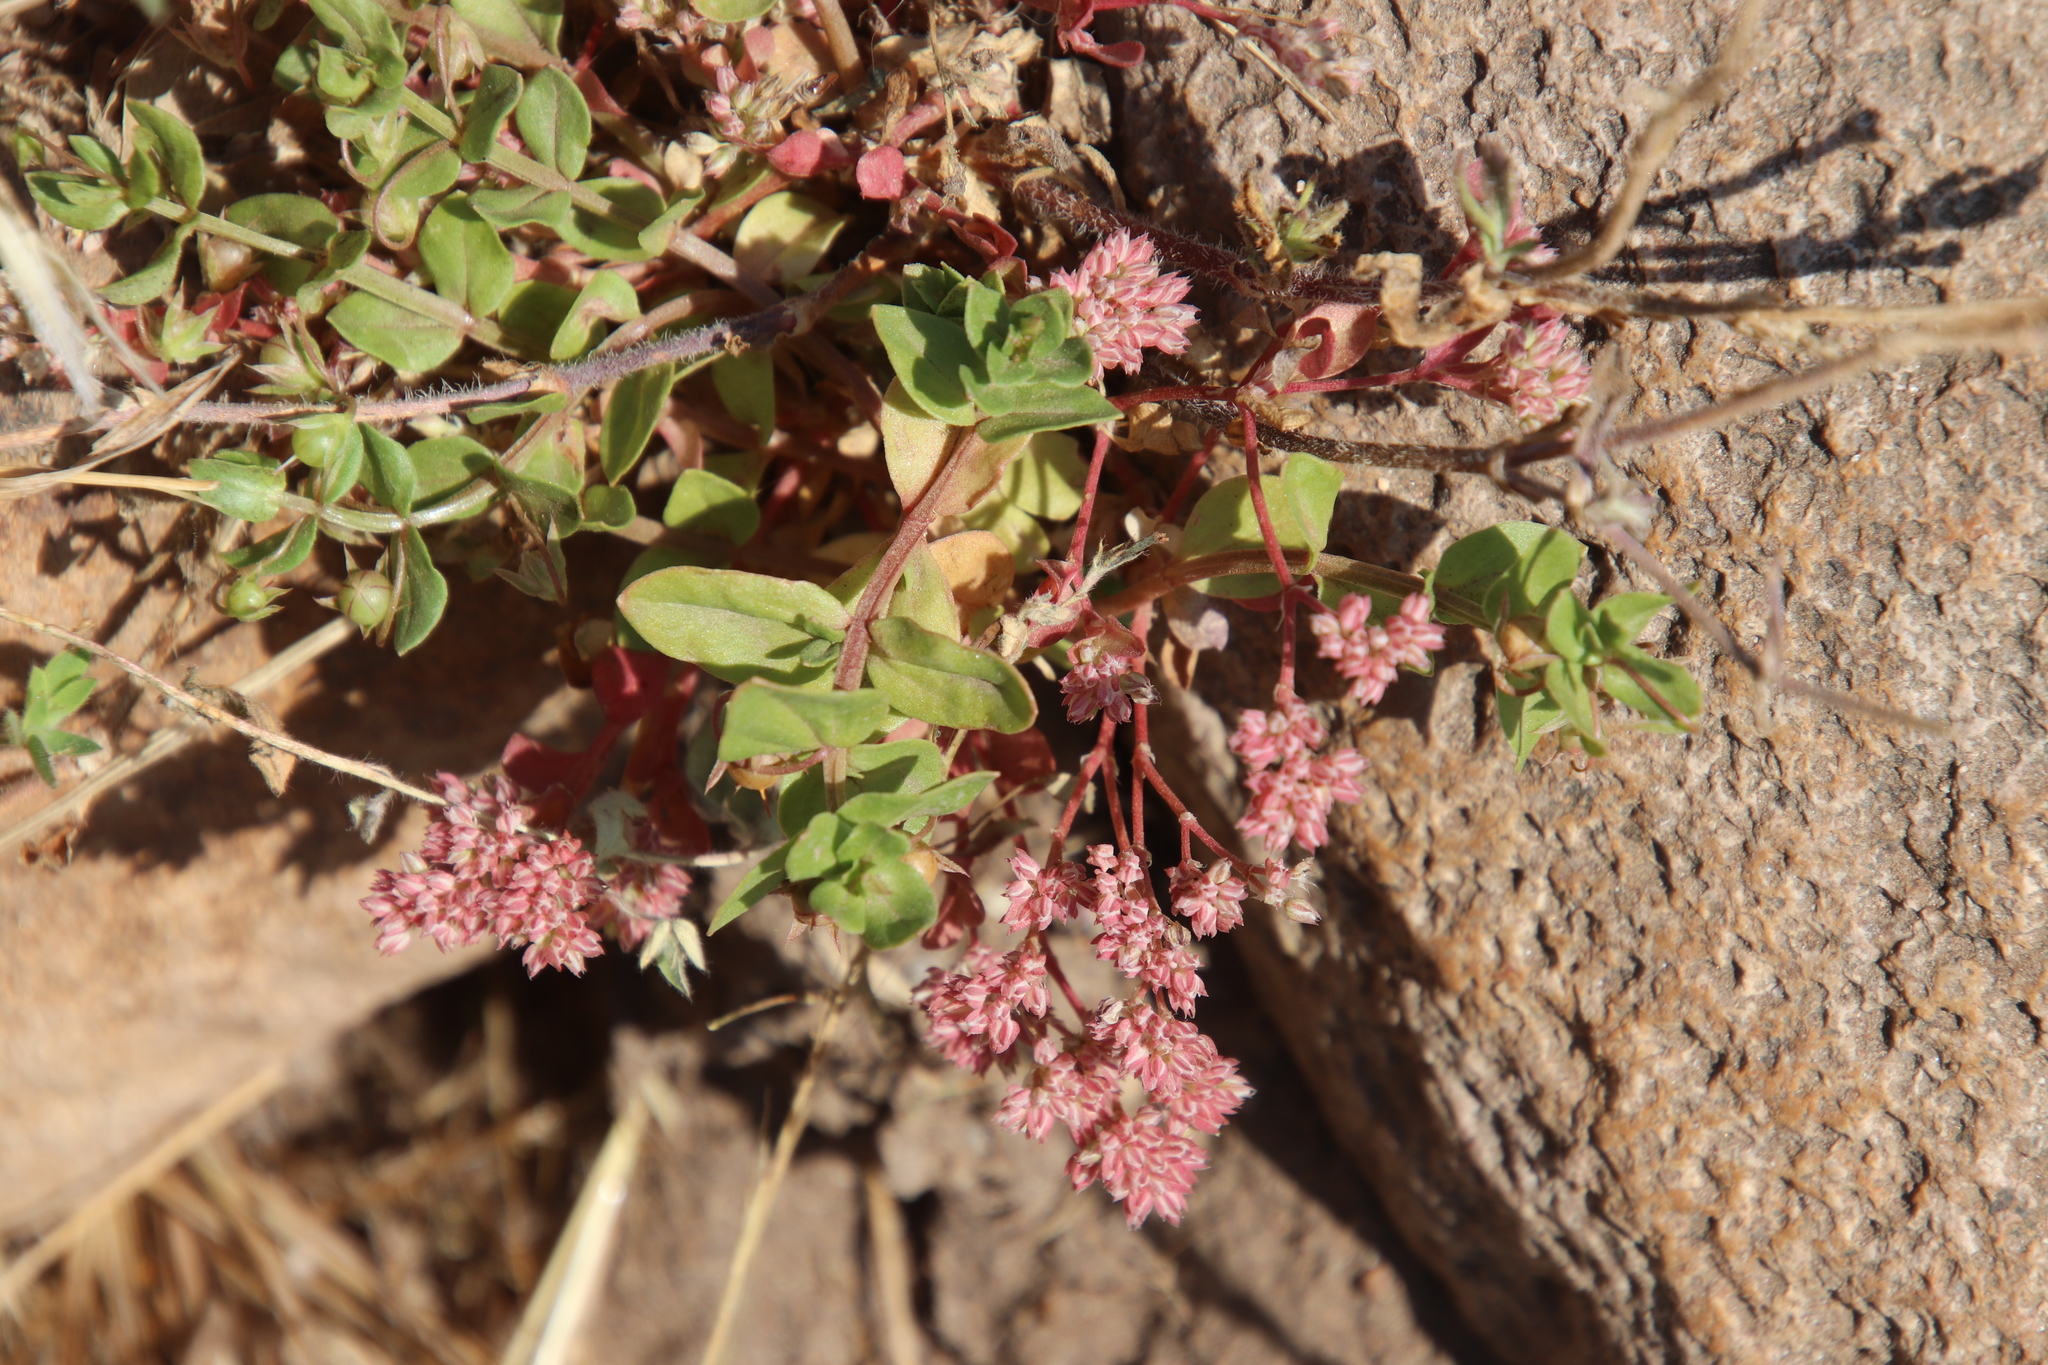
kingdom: Plantae
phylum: Tracheophyta
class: Magnoliopsida
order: Caryophyllales
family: Caryophyllaceae
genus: Polycarpon
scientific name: Polycarpon tetraphyllum
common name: Four-leaved all-seed
